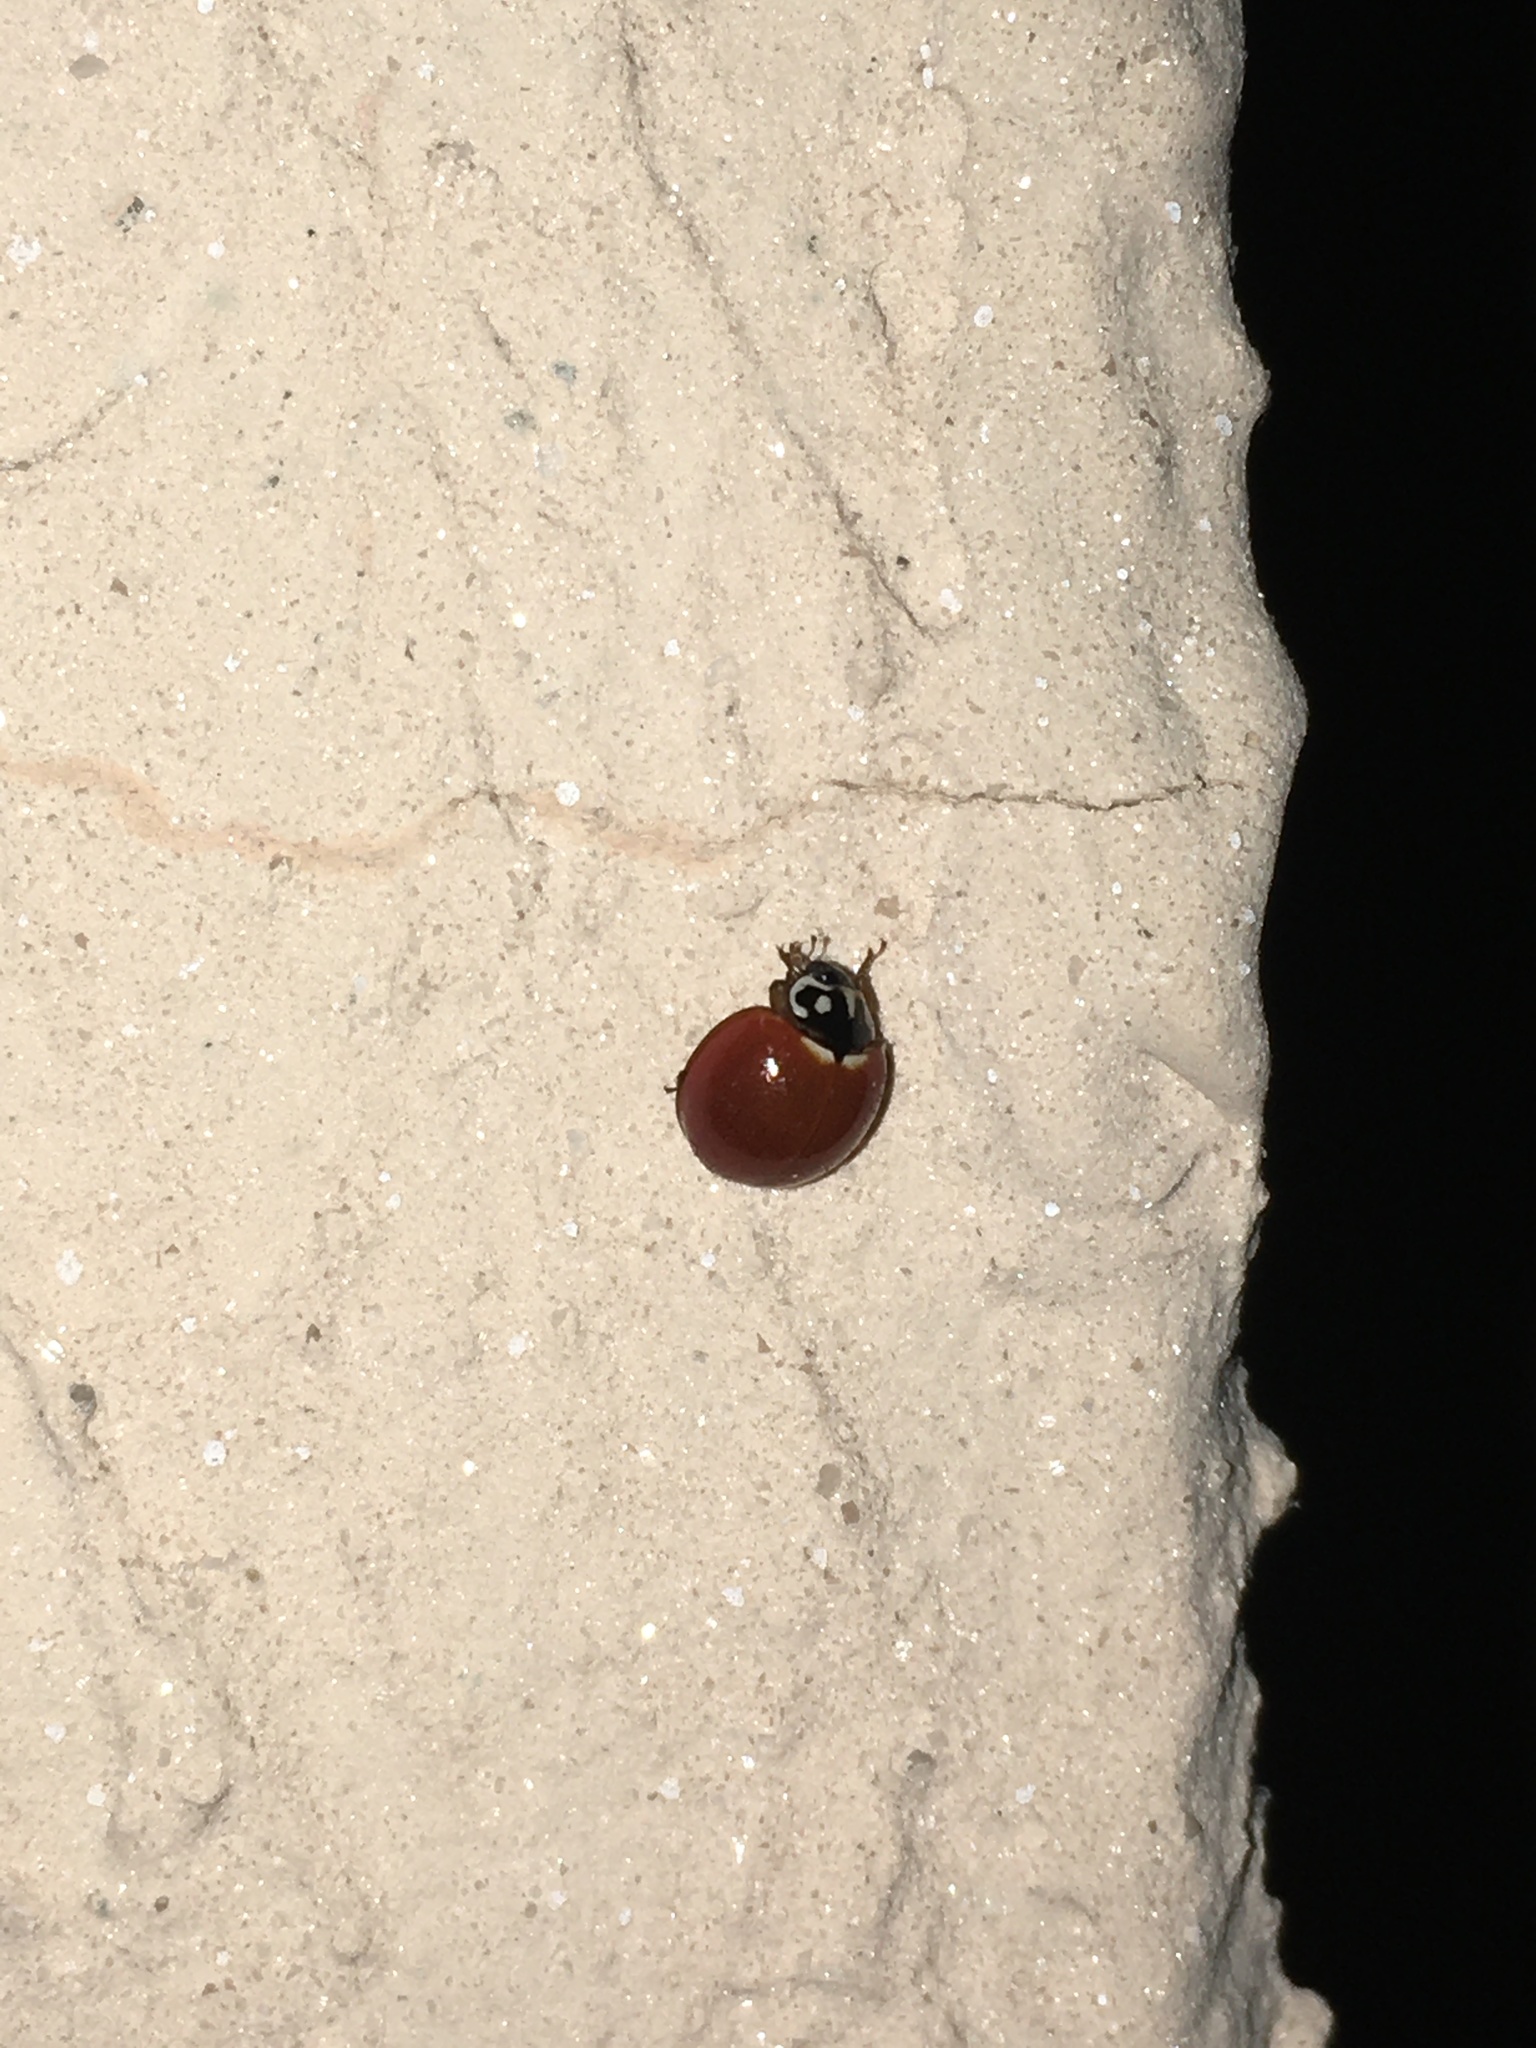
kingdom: Animalia
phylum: Arthropoda
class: Insecta
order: Coleoptera
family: Coccinellidae
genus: Cycloneda
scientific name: Cycloneda sanguinea
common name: Ladybird beetle
